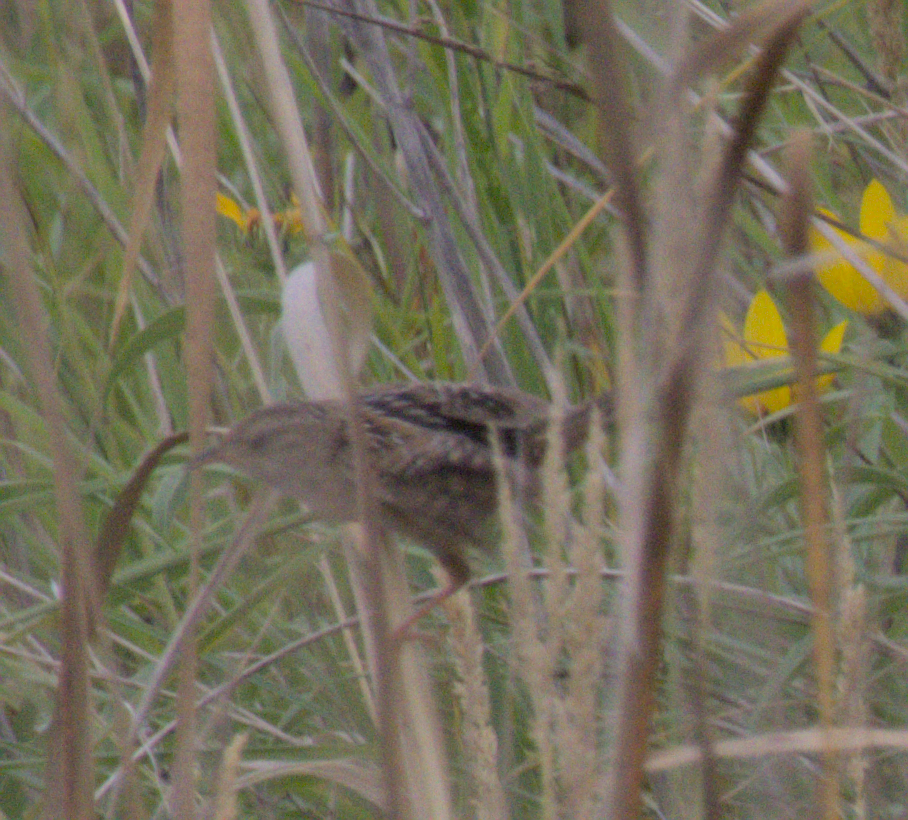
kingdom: Animalia
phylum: Chordata
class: Aves
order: Passeriformes
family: Troglodytidae
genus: Cistothorus
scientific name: Cistothorus platensis
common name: Sedge wren
